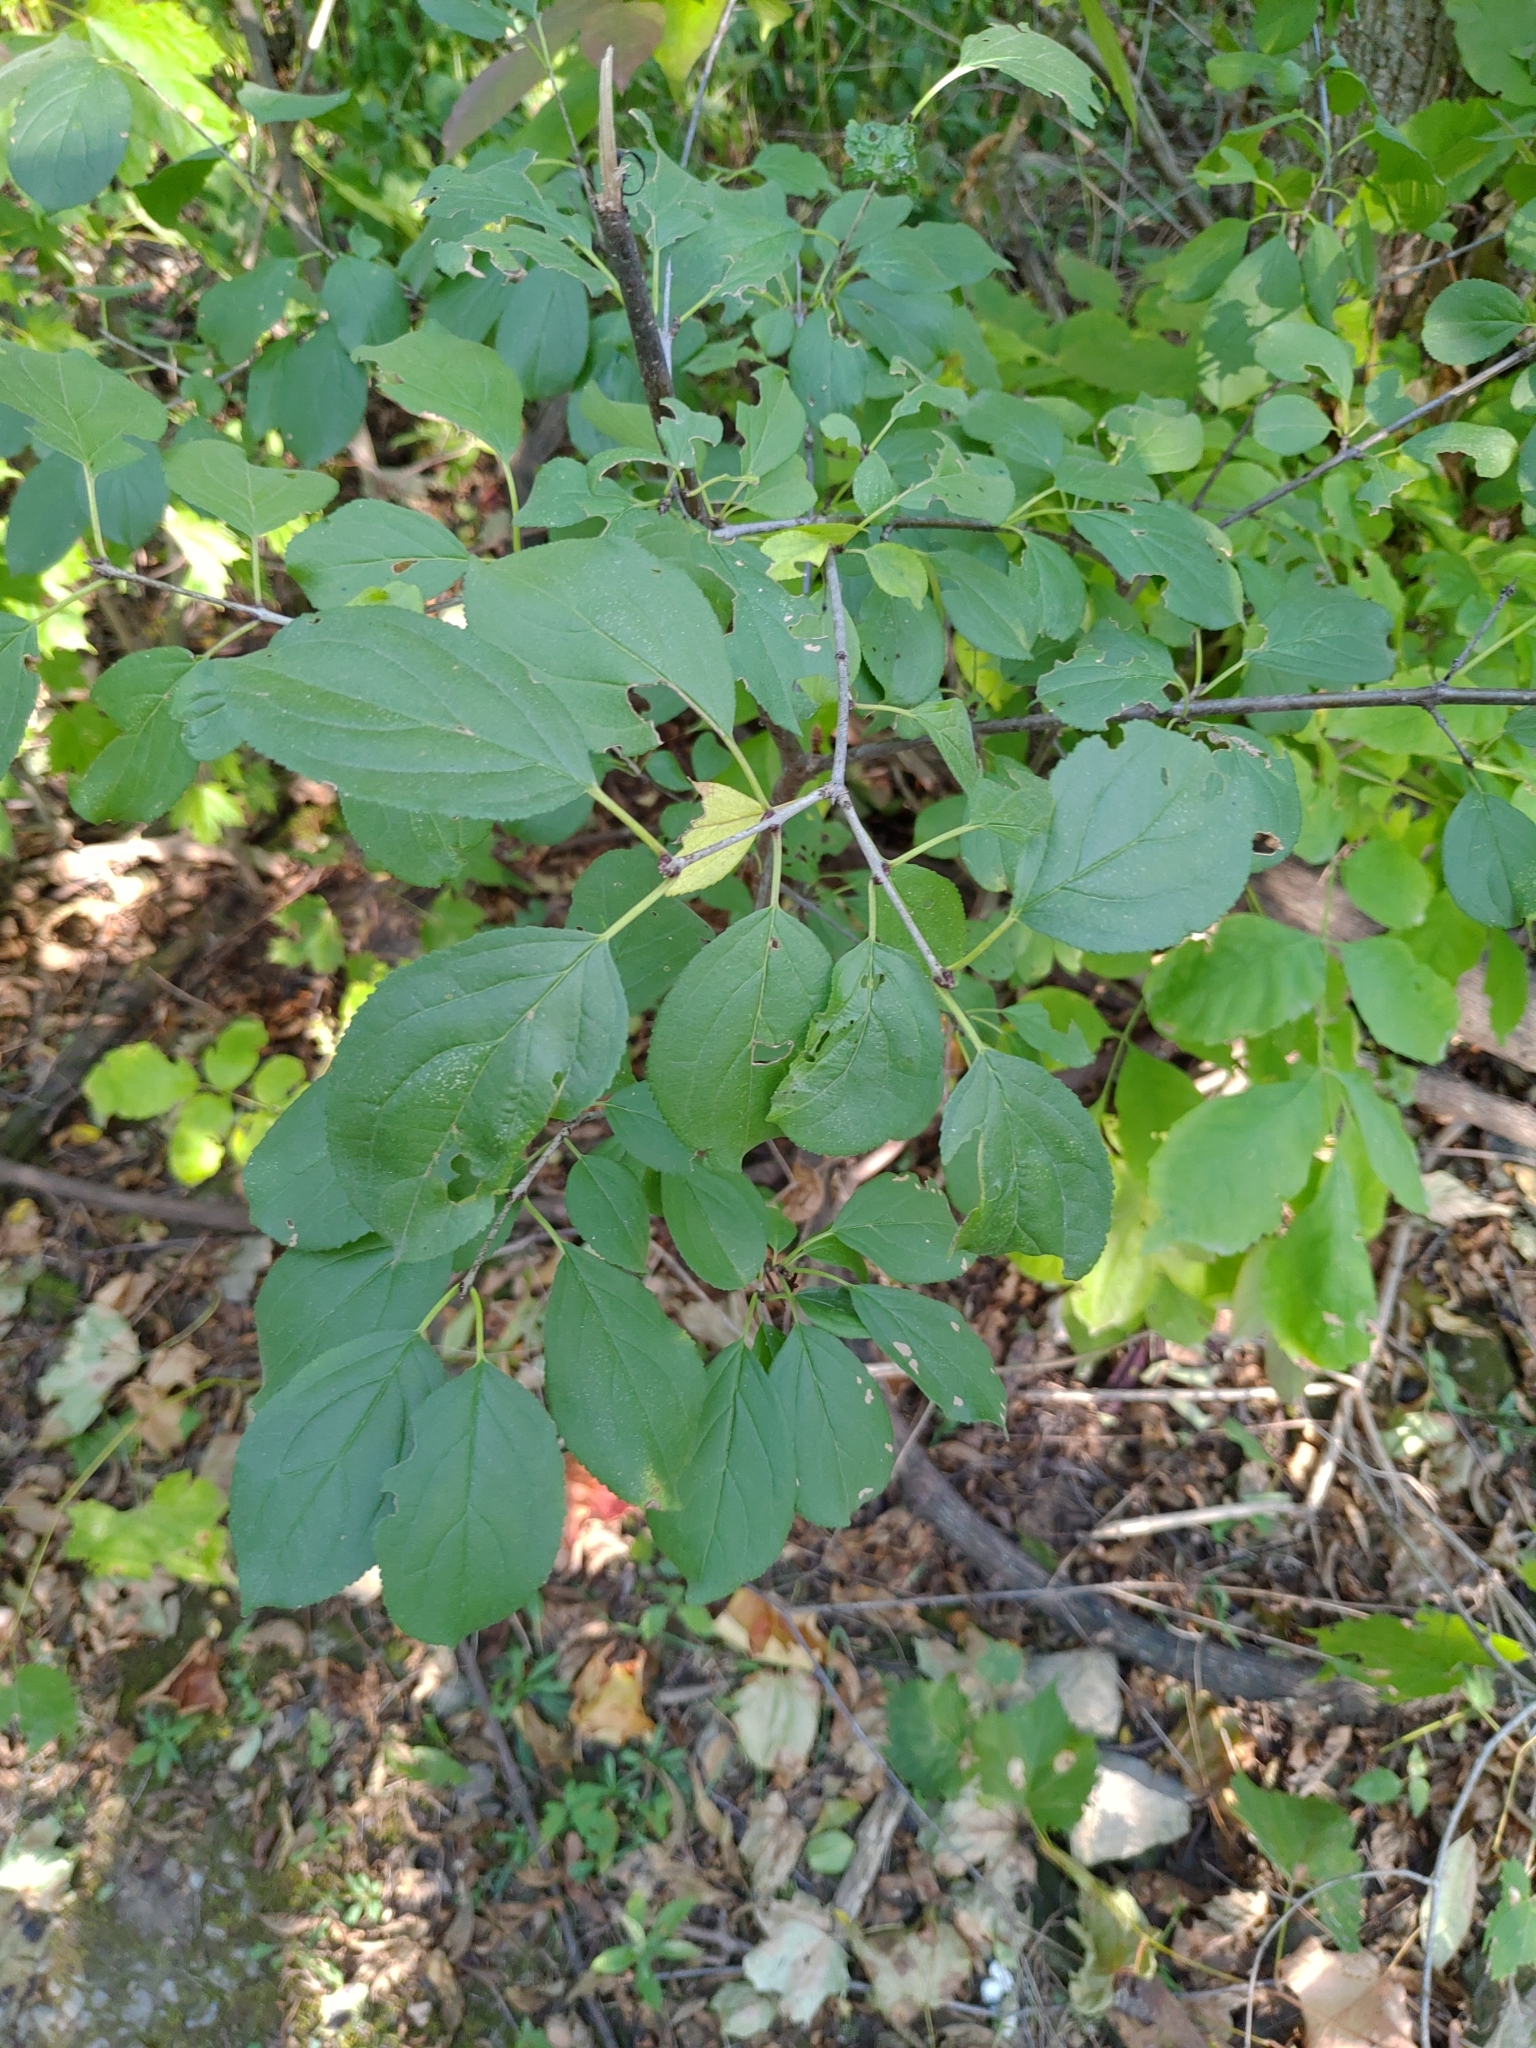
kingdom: Plantae
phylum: Tracheophyta
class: Magnoliopsida
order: Rosales
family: Rhamnaceae
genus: Rhamnus
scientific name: Rhamnus cathartica
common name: Common buckthorn
